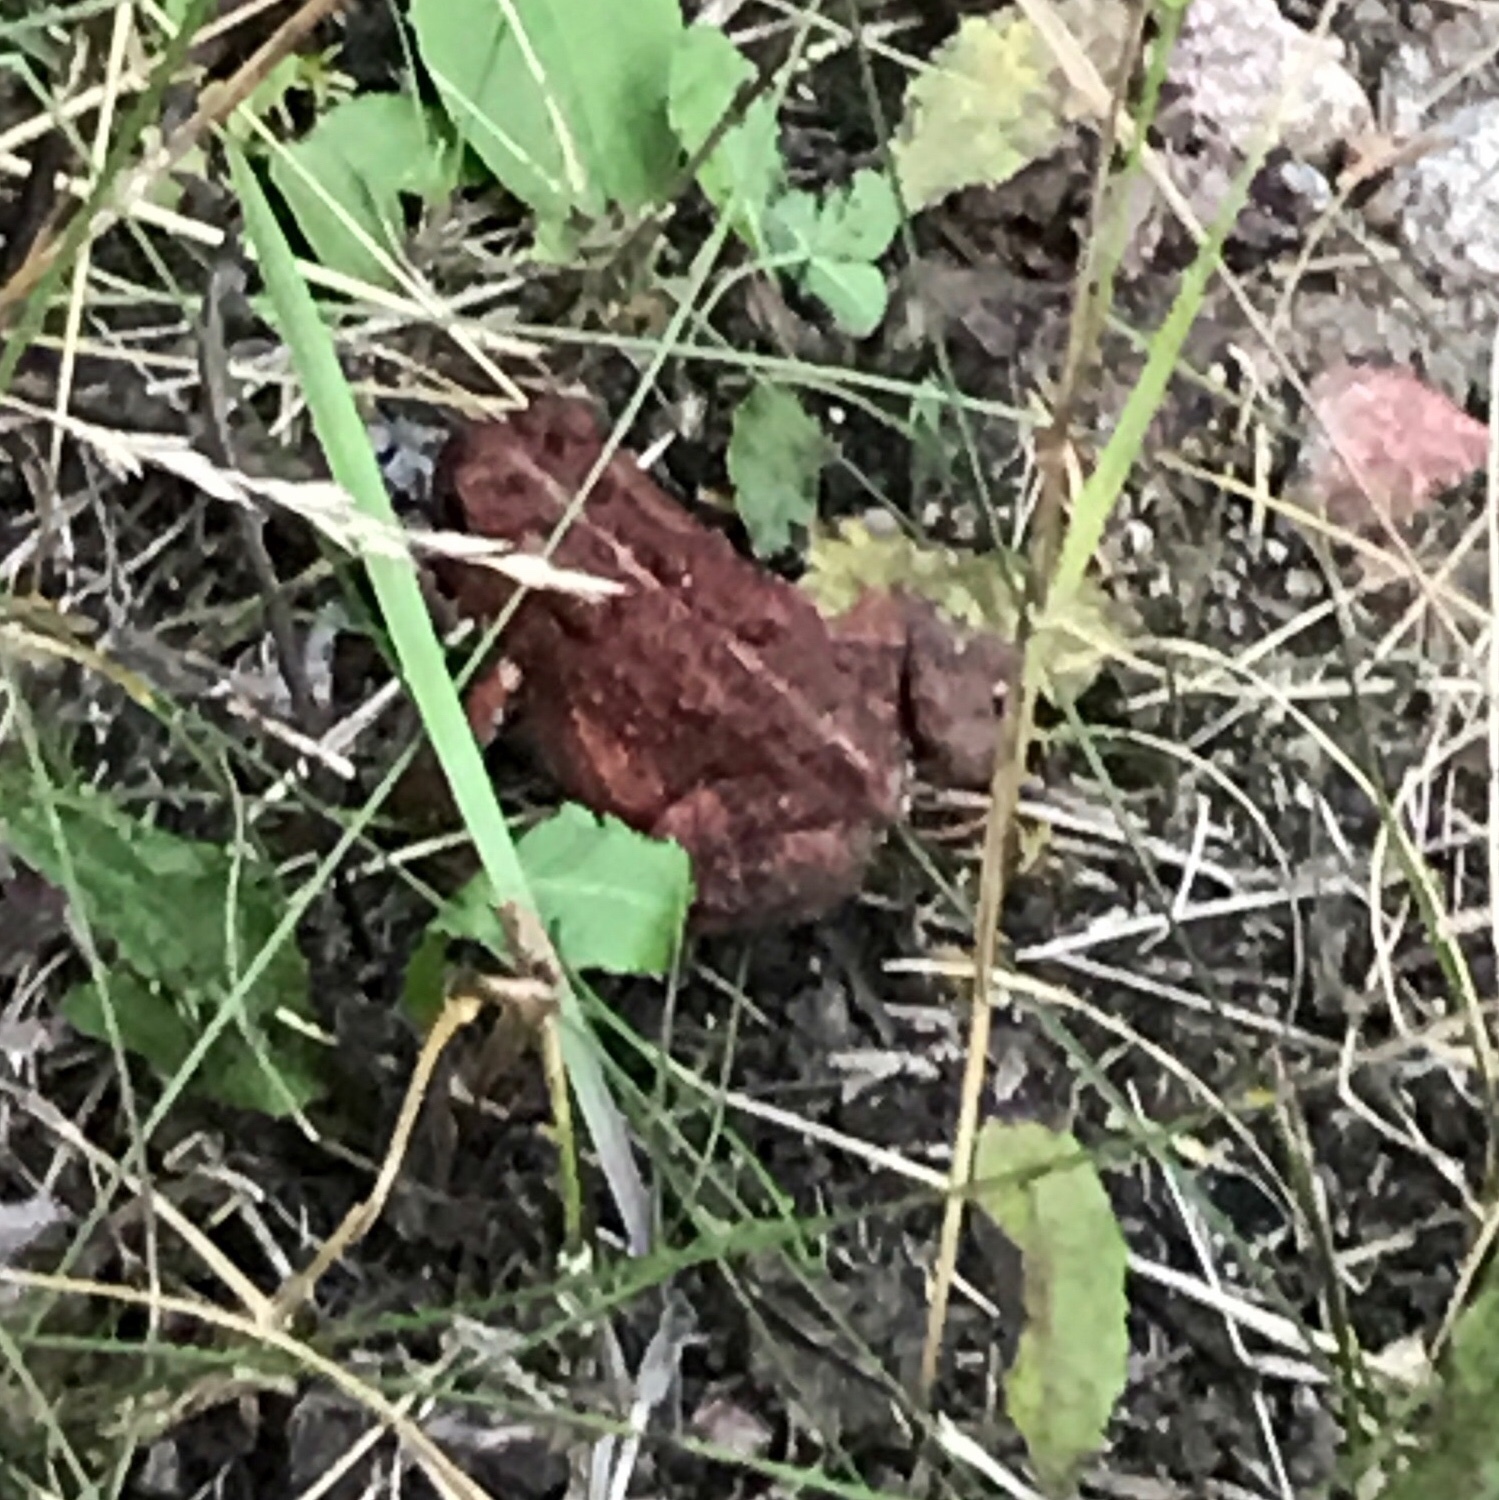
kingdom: Animalia
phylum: Chordata
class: Amphibia
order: Anura
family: Bufonidae
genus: Anaxyrus
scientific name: Anaxyrus americanus
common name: American toad
